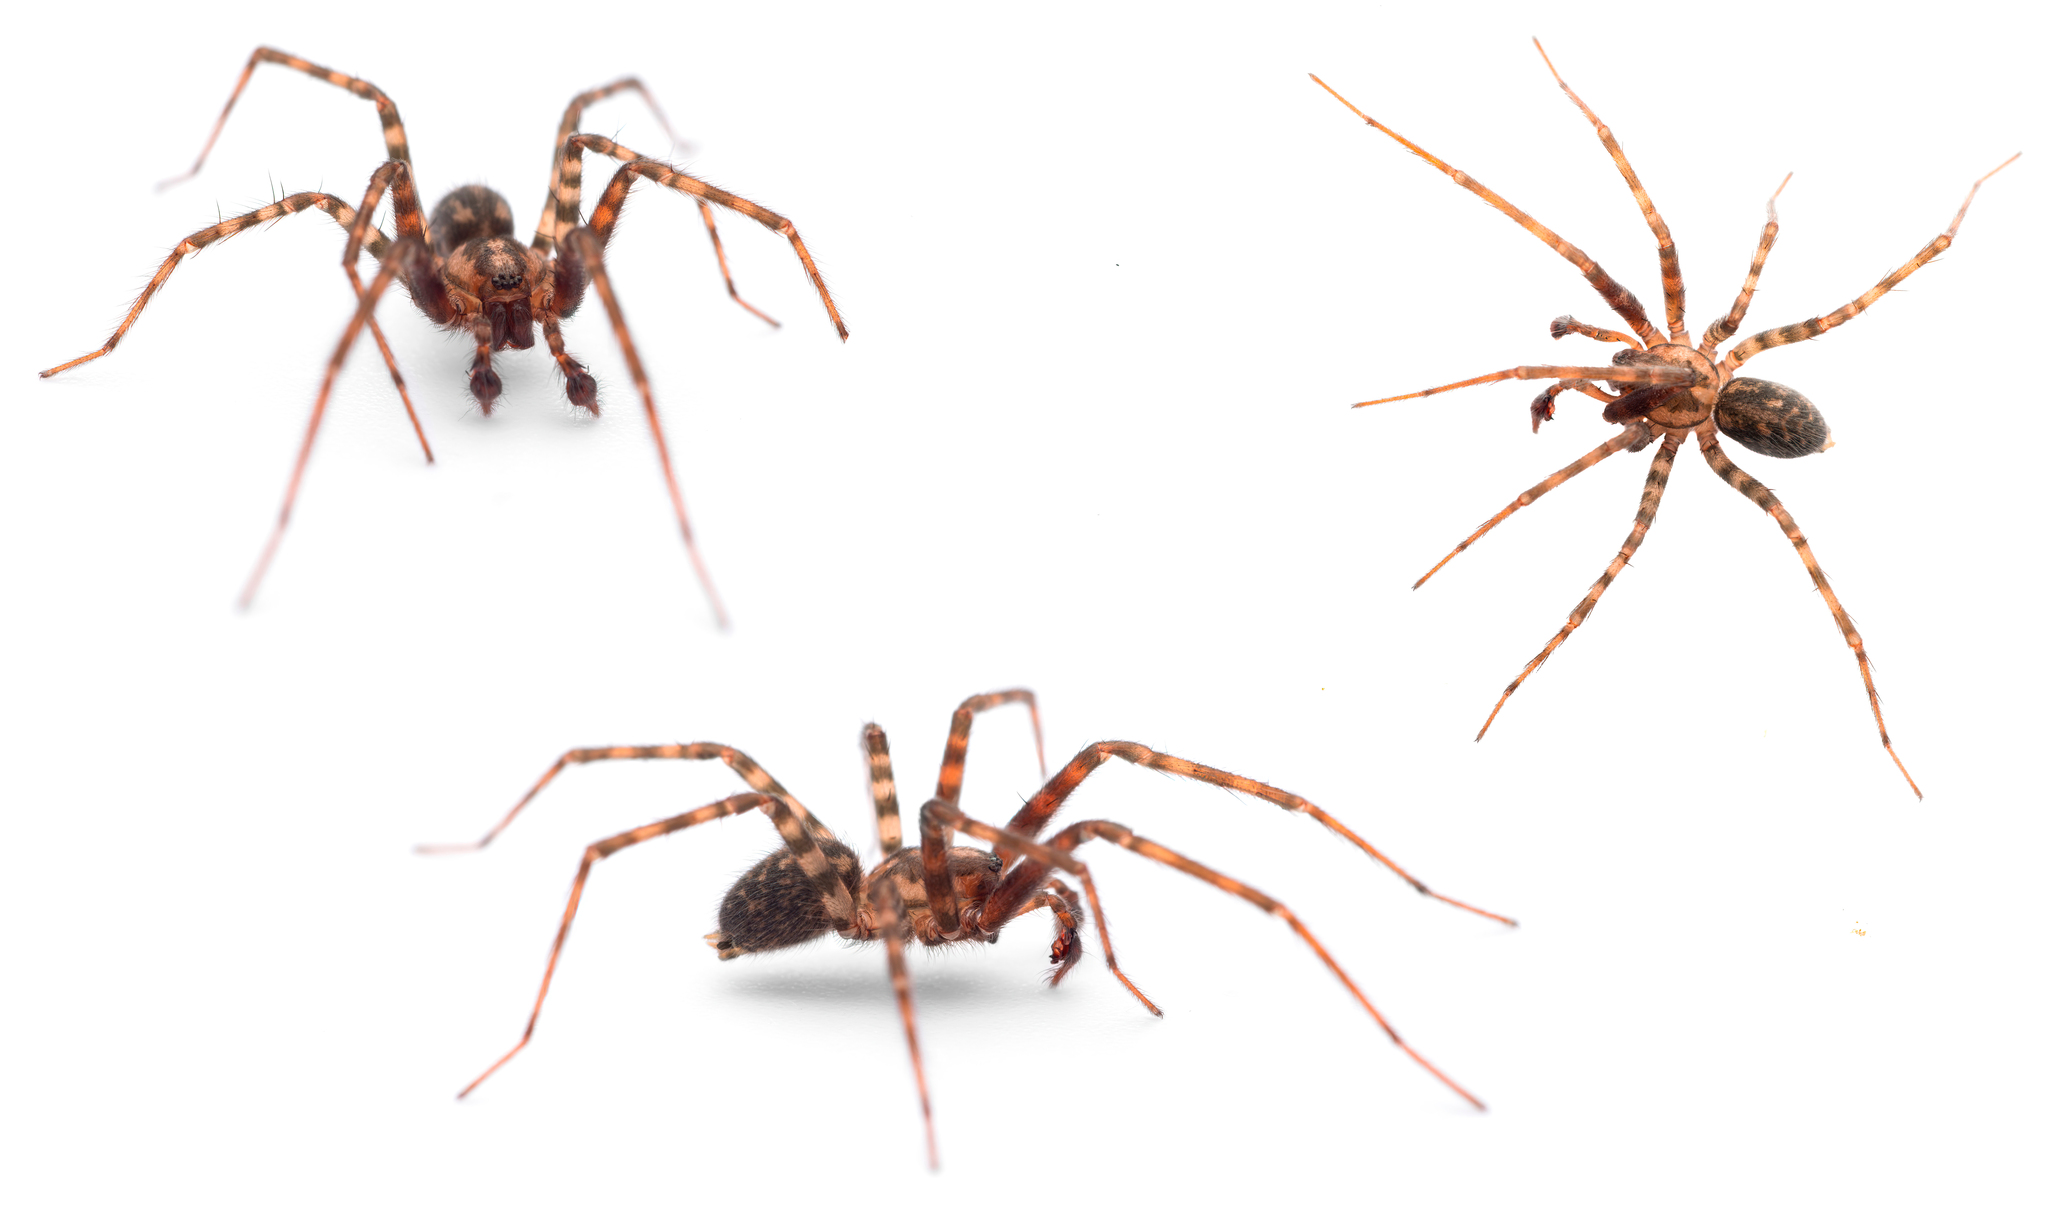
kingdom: Animalia
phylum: Arthropoda
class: Arachnida
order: Araneae
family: Agelenidae
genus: Tegenaria
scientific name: Tegenaria dalmatica
